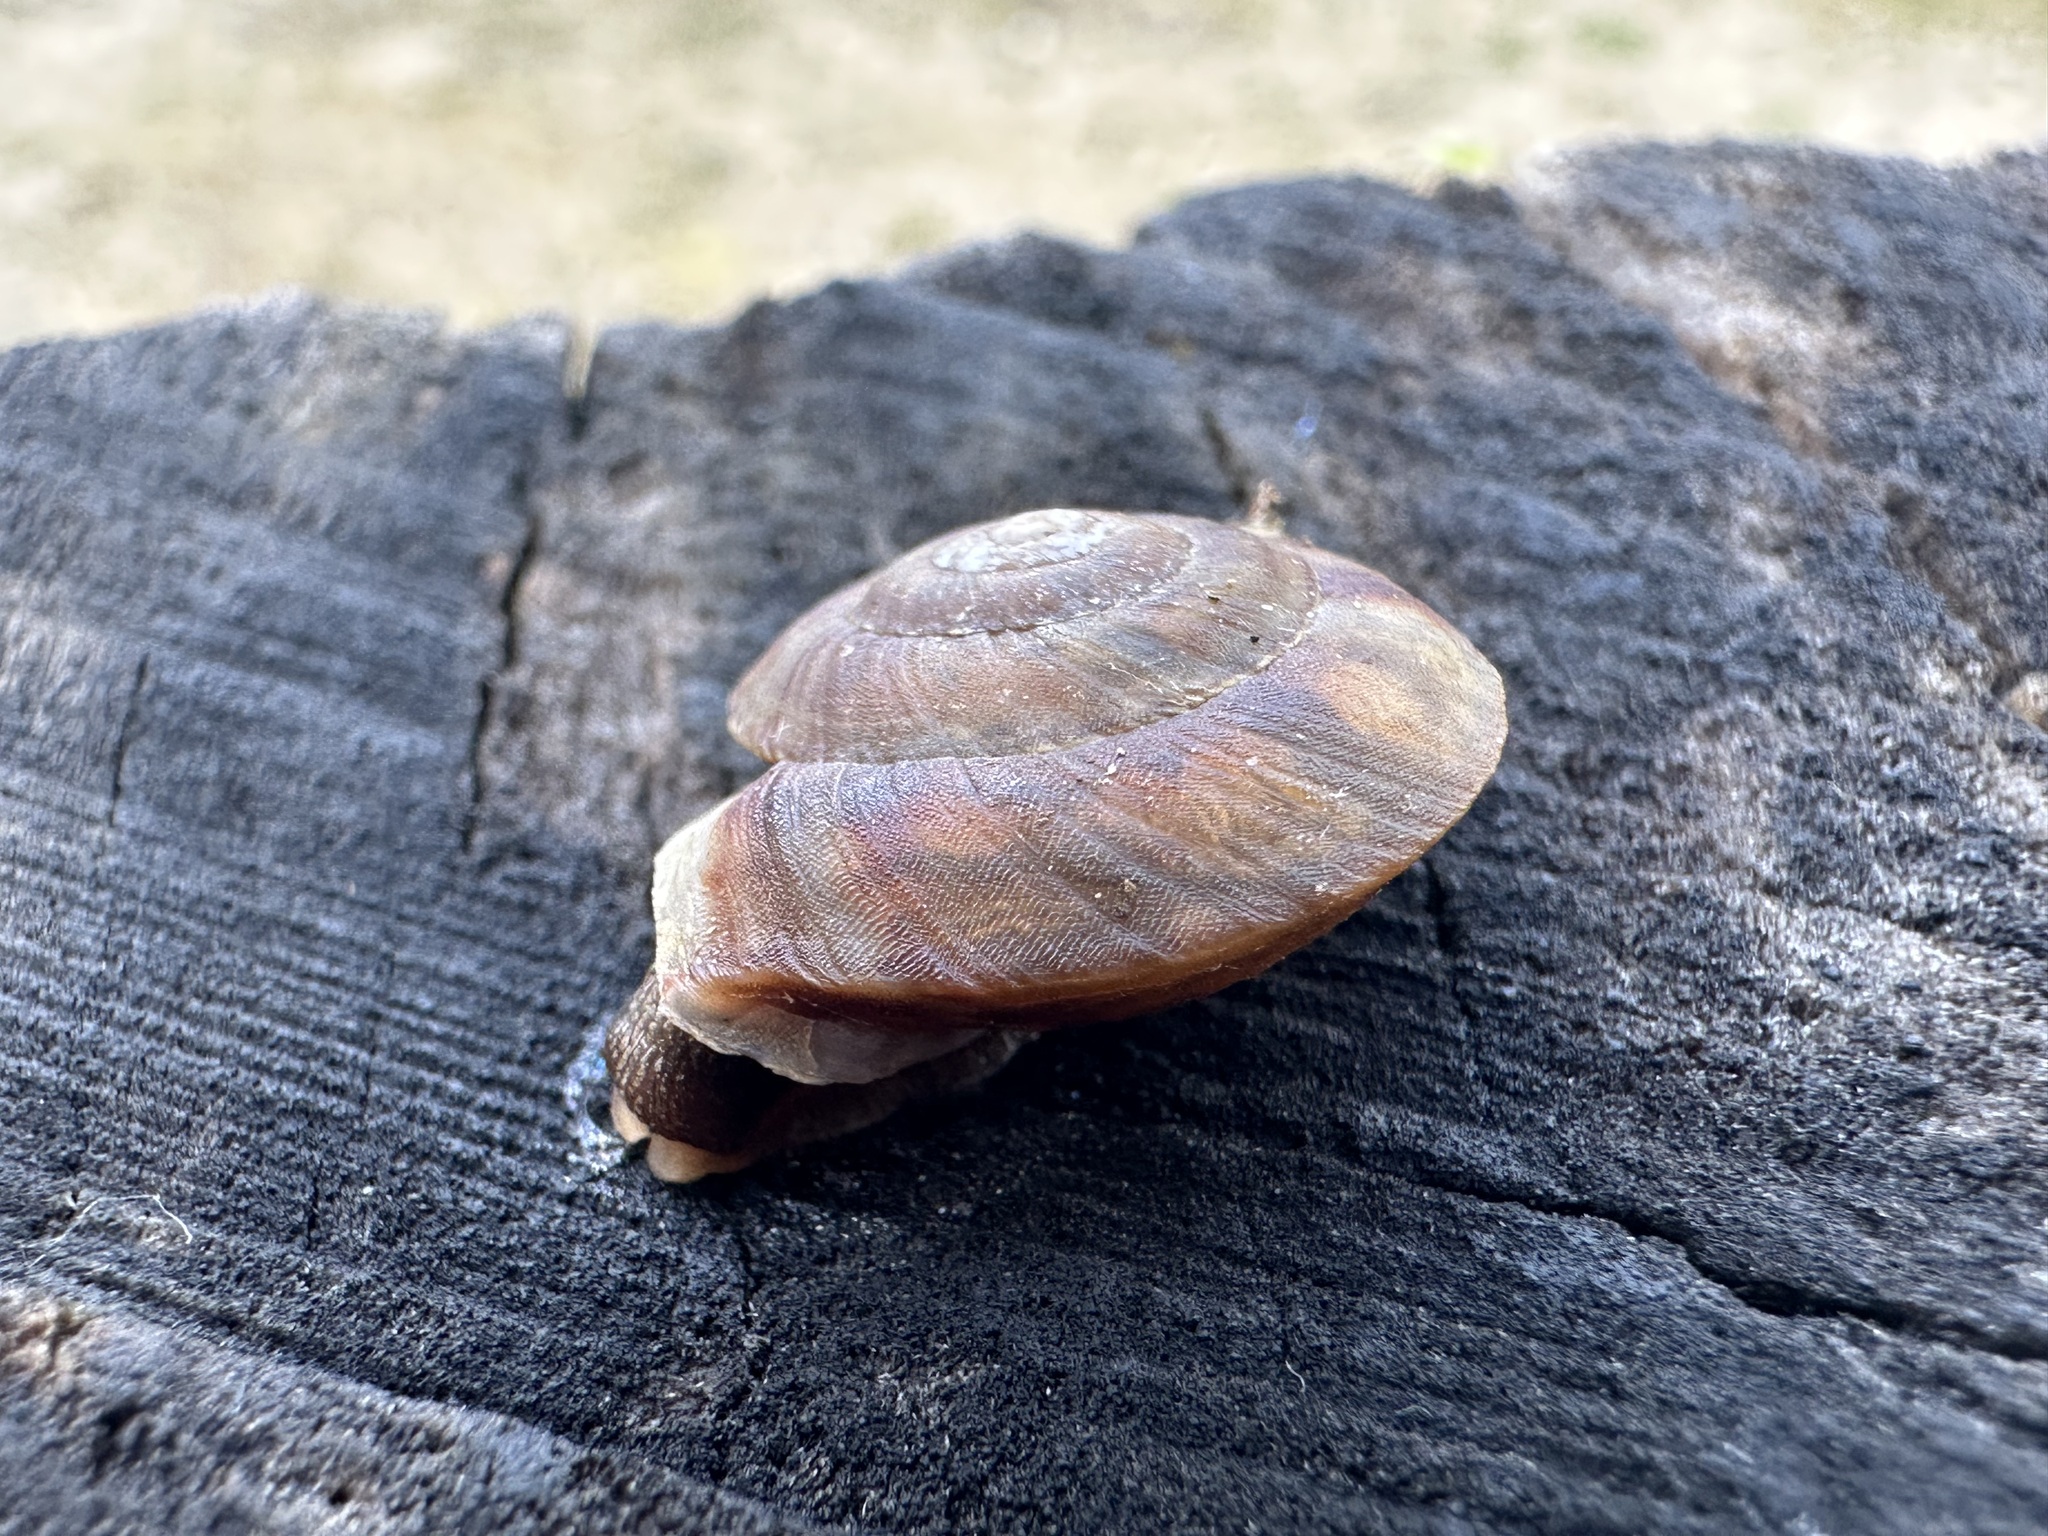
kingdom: Animalia
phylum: Mollusca
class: Gastropoda
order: Stylommatophora
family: Helicidae
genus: Helicigona
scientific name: Helicigona lapicida
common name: Lapidary snail
